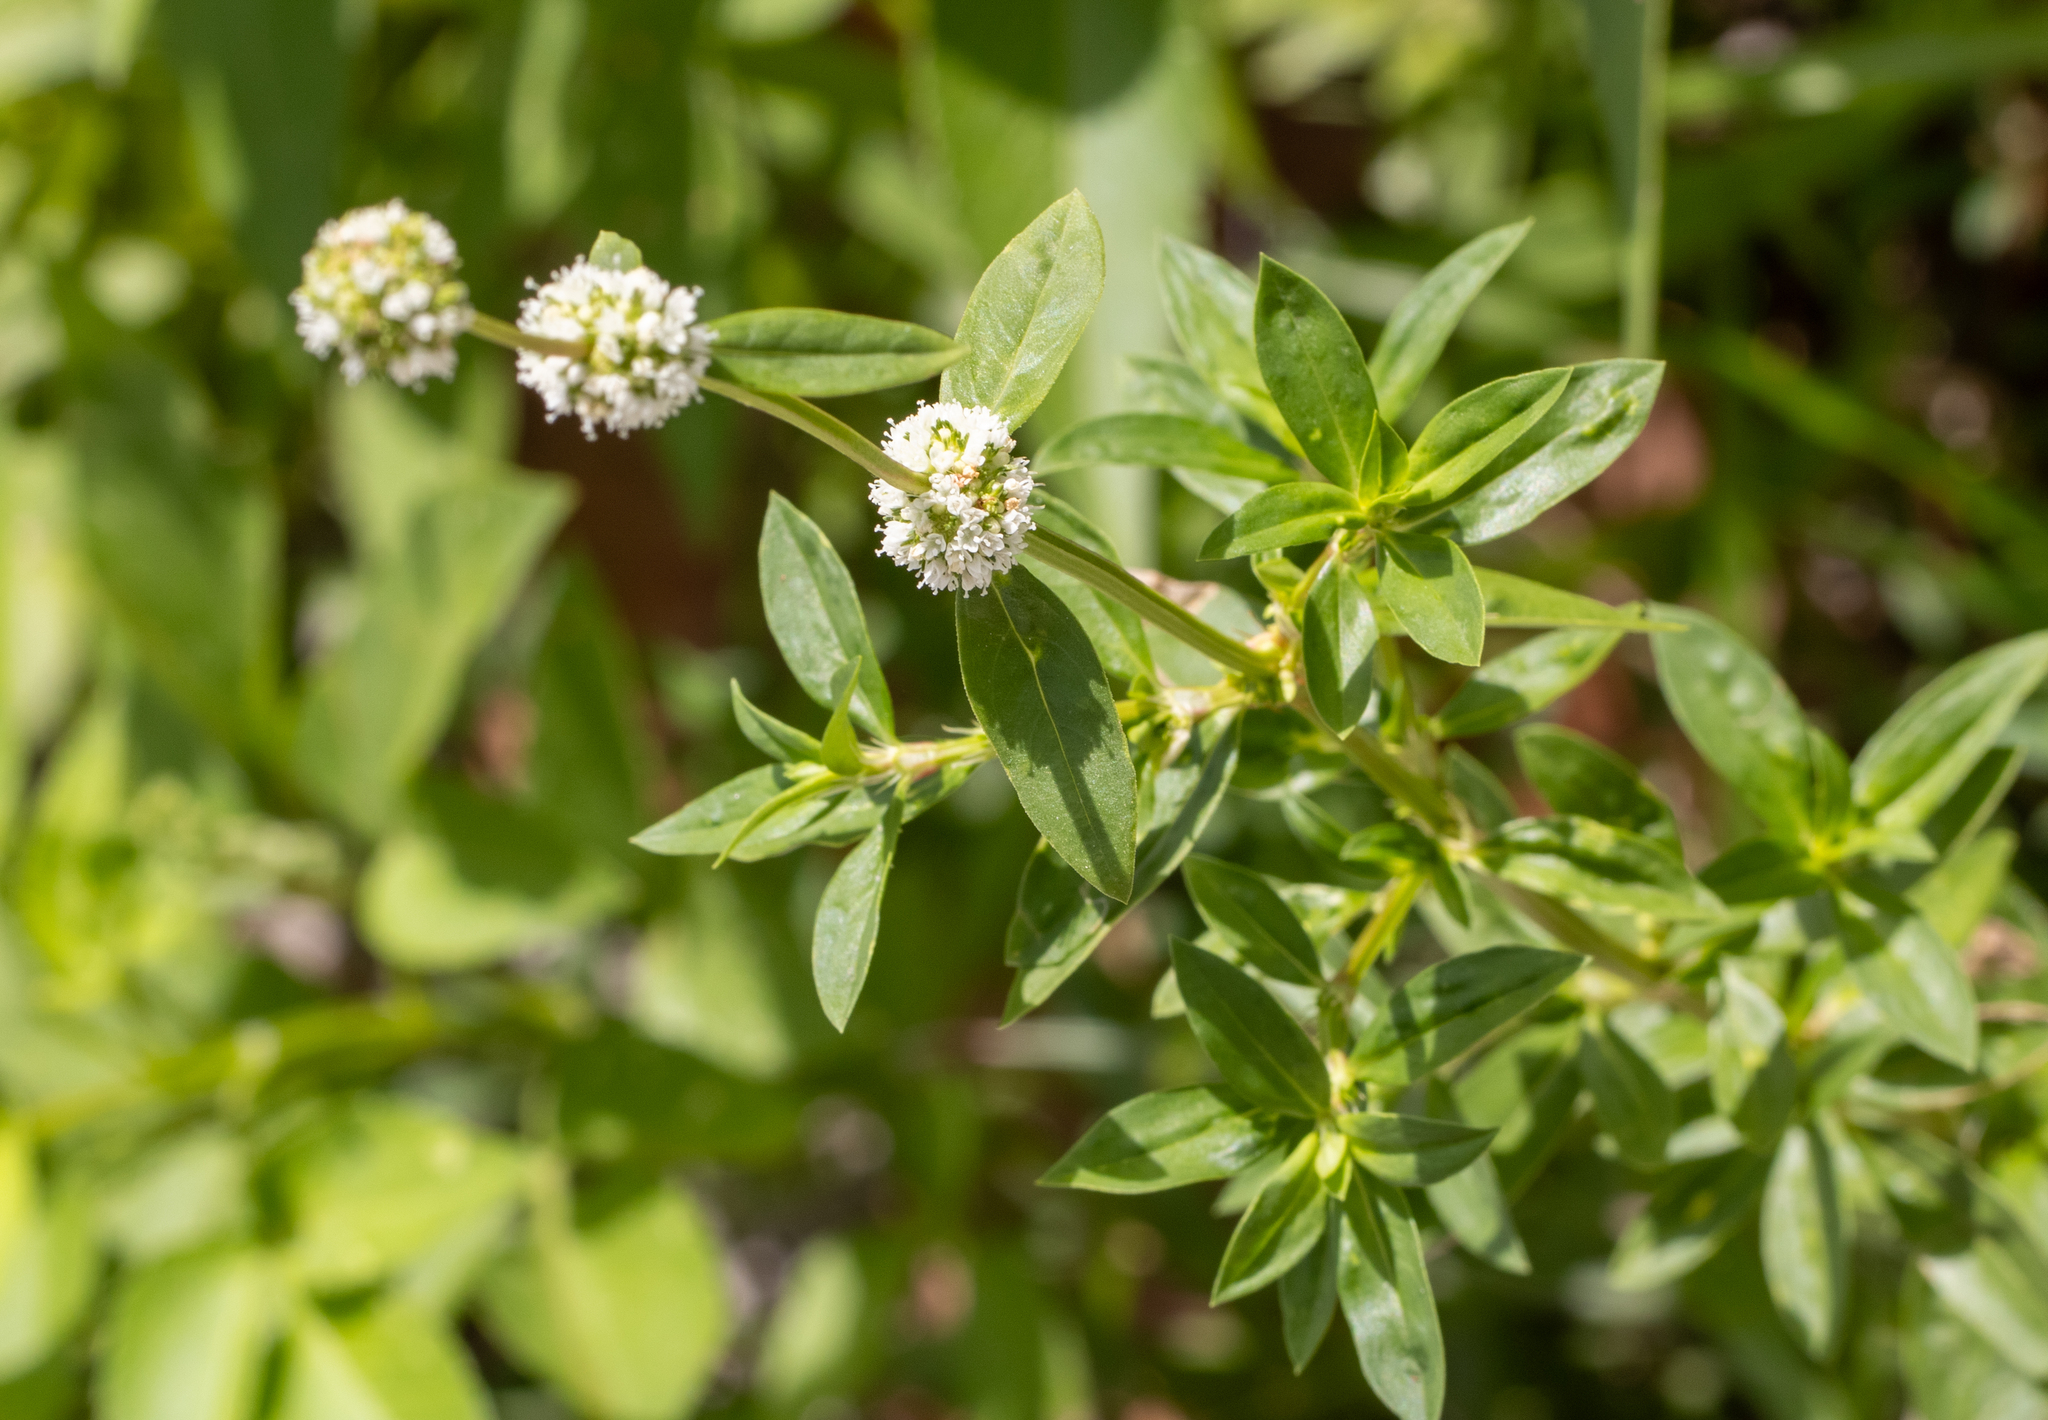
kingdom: Plantae
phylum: Tracheophyta
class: Magnoliopsida
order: Gentianales
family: Rubiaceae
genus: Spermacoce
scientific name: Spermacoce verticillata
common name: Shrubby false buttonweed
